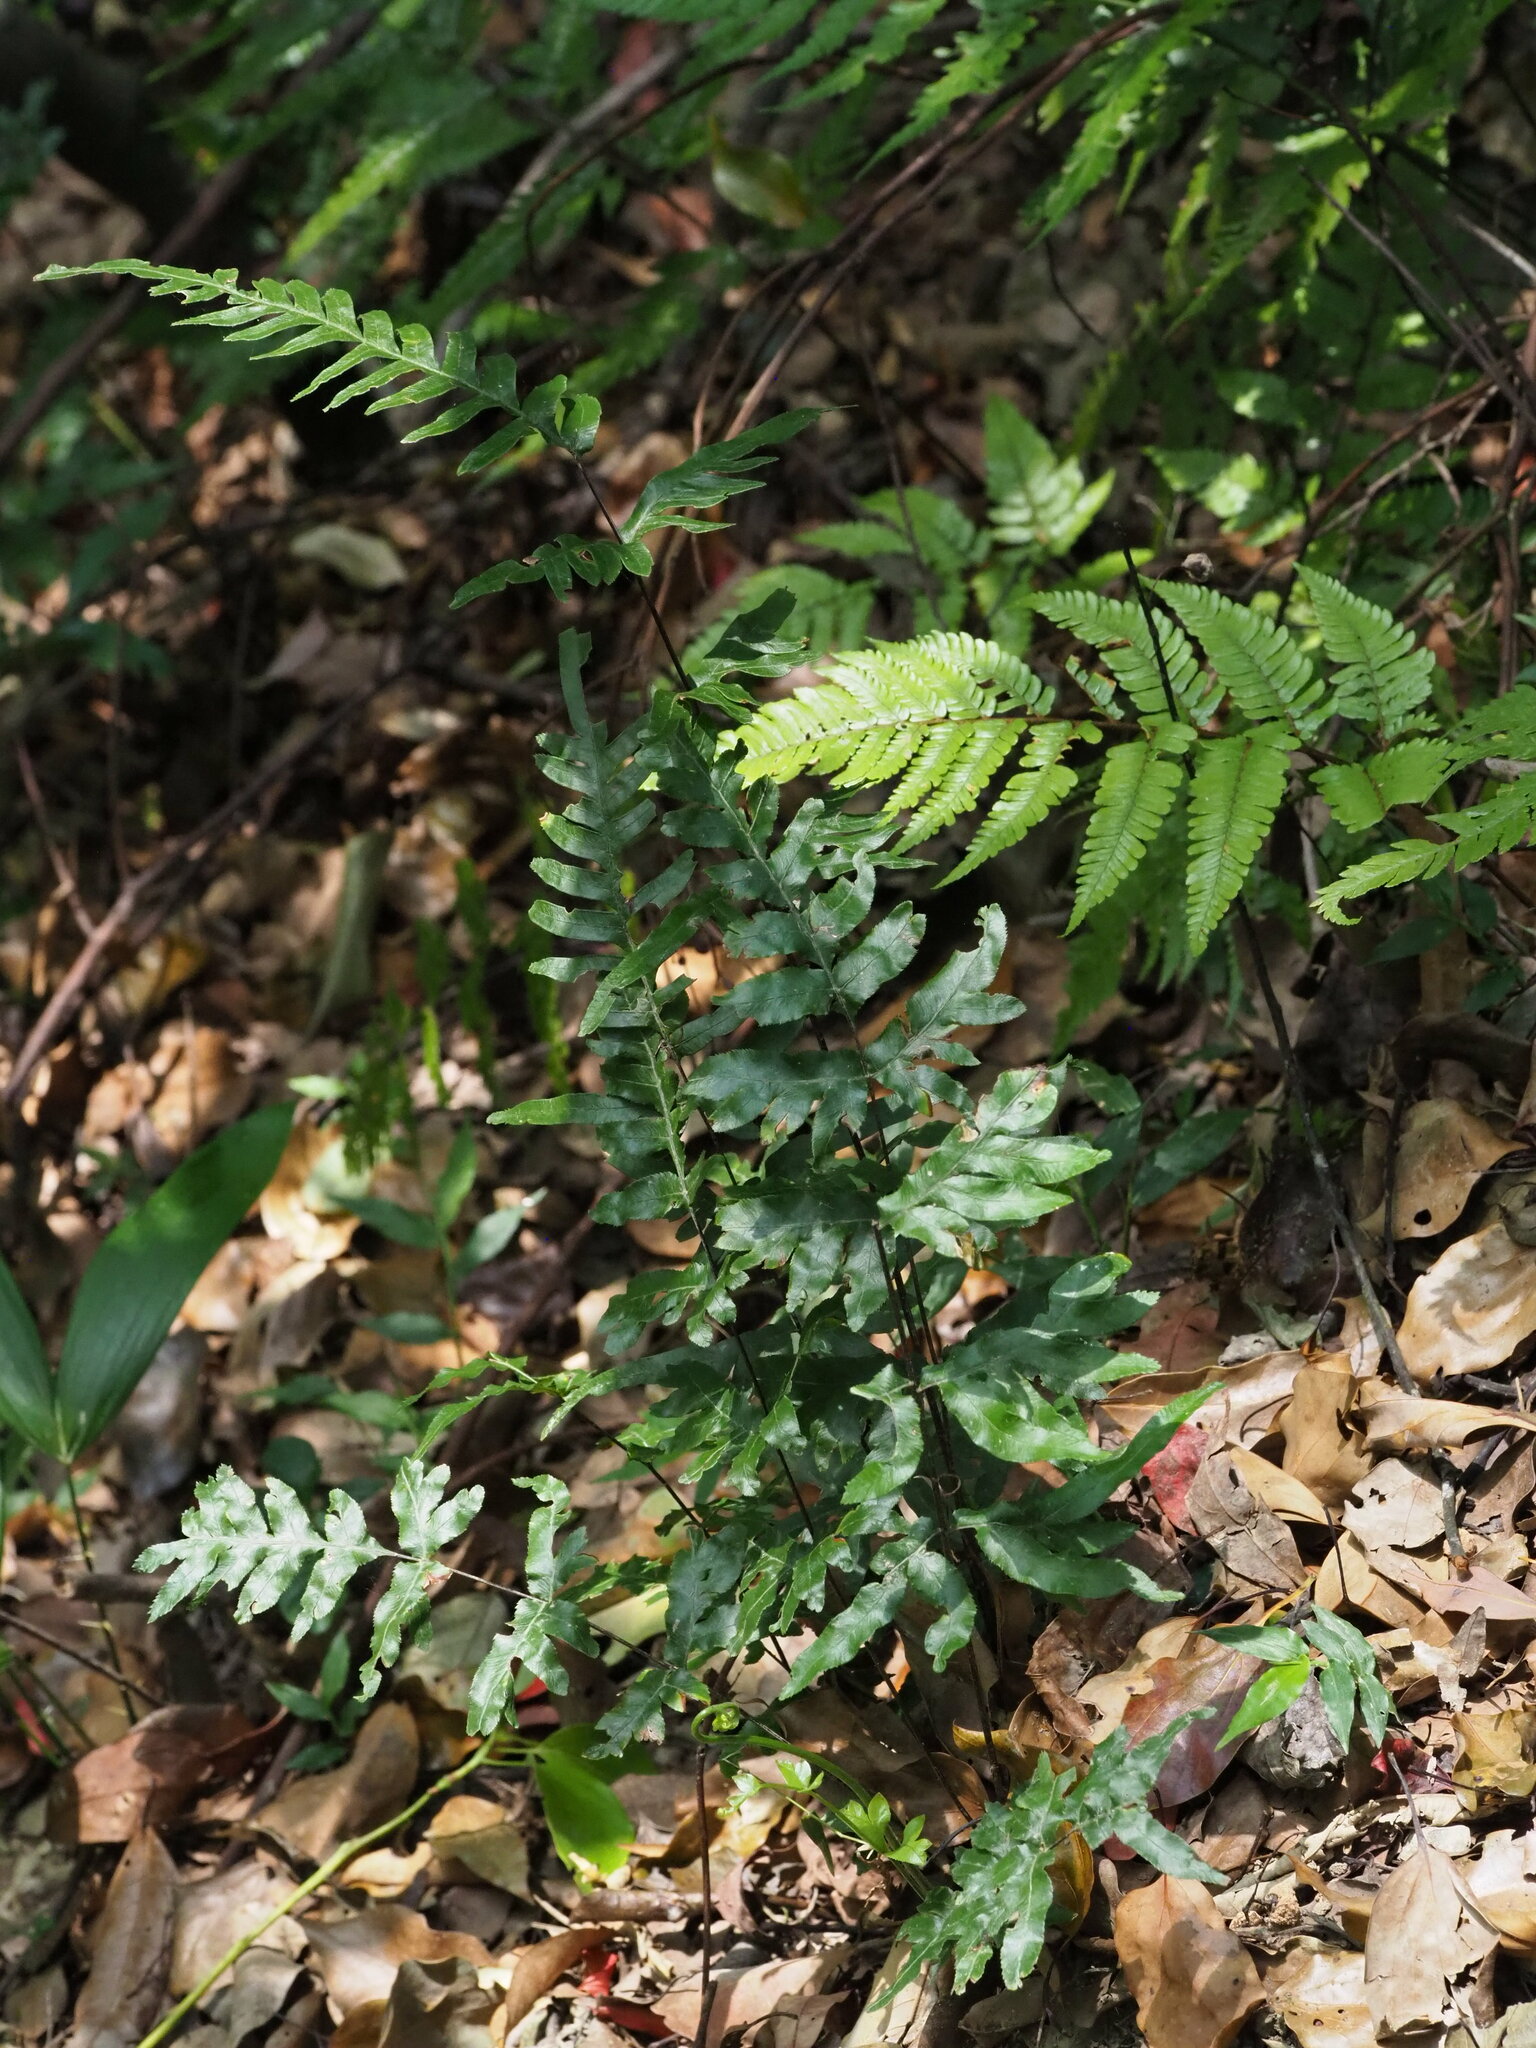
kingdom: Plantae
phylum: Tracheophyta
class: Polypodiopsida
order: Polypodiales
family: Pteridaceae
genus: Pteris
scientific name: Pteris semipinnata
